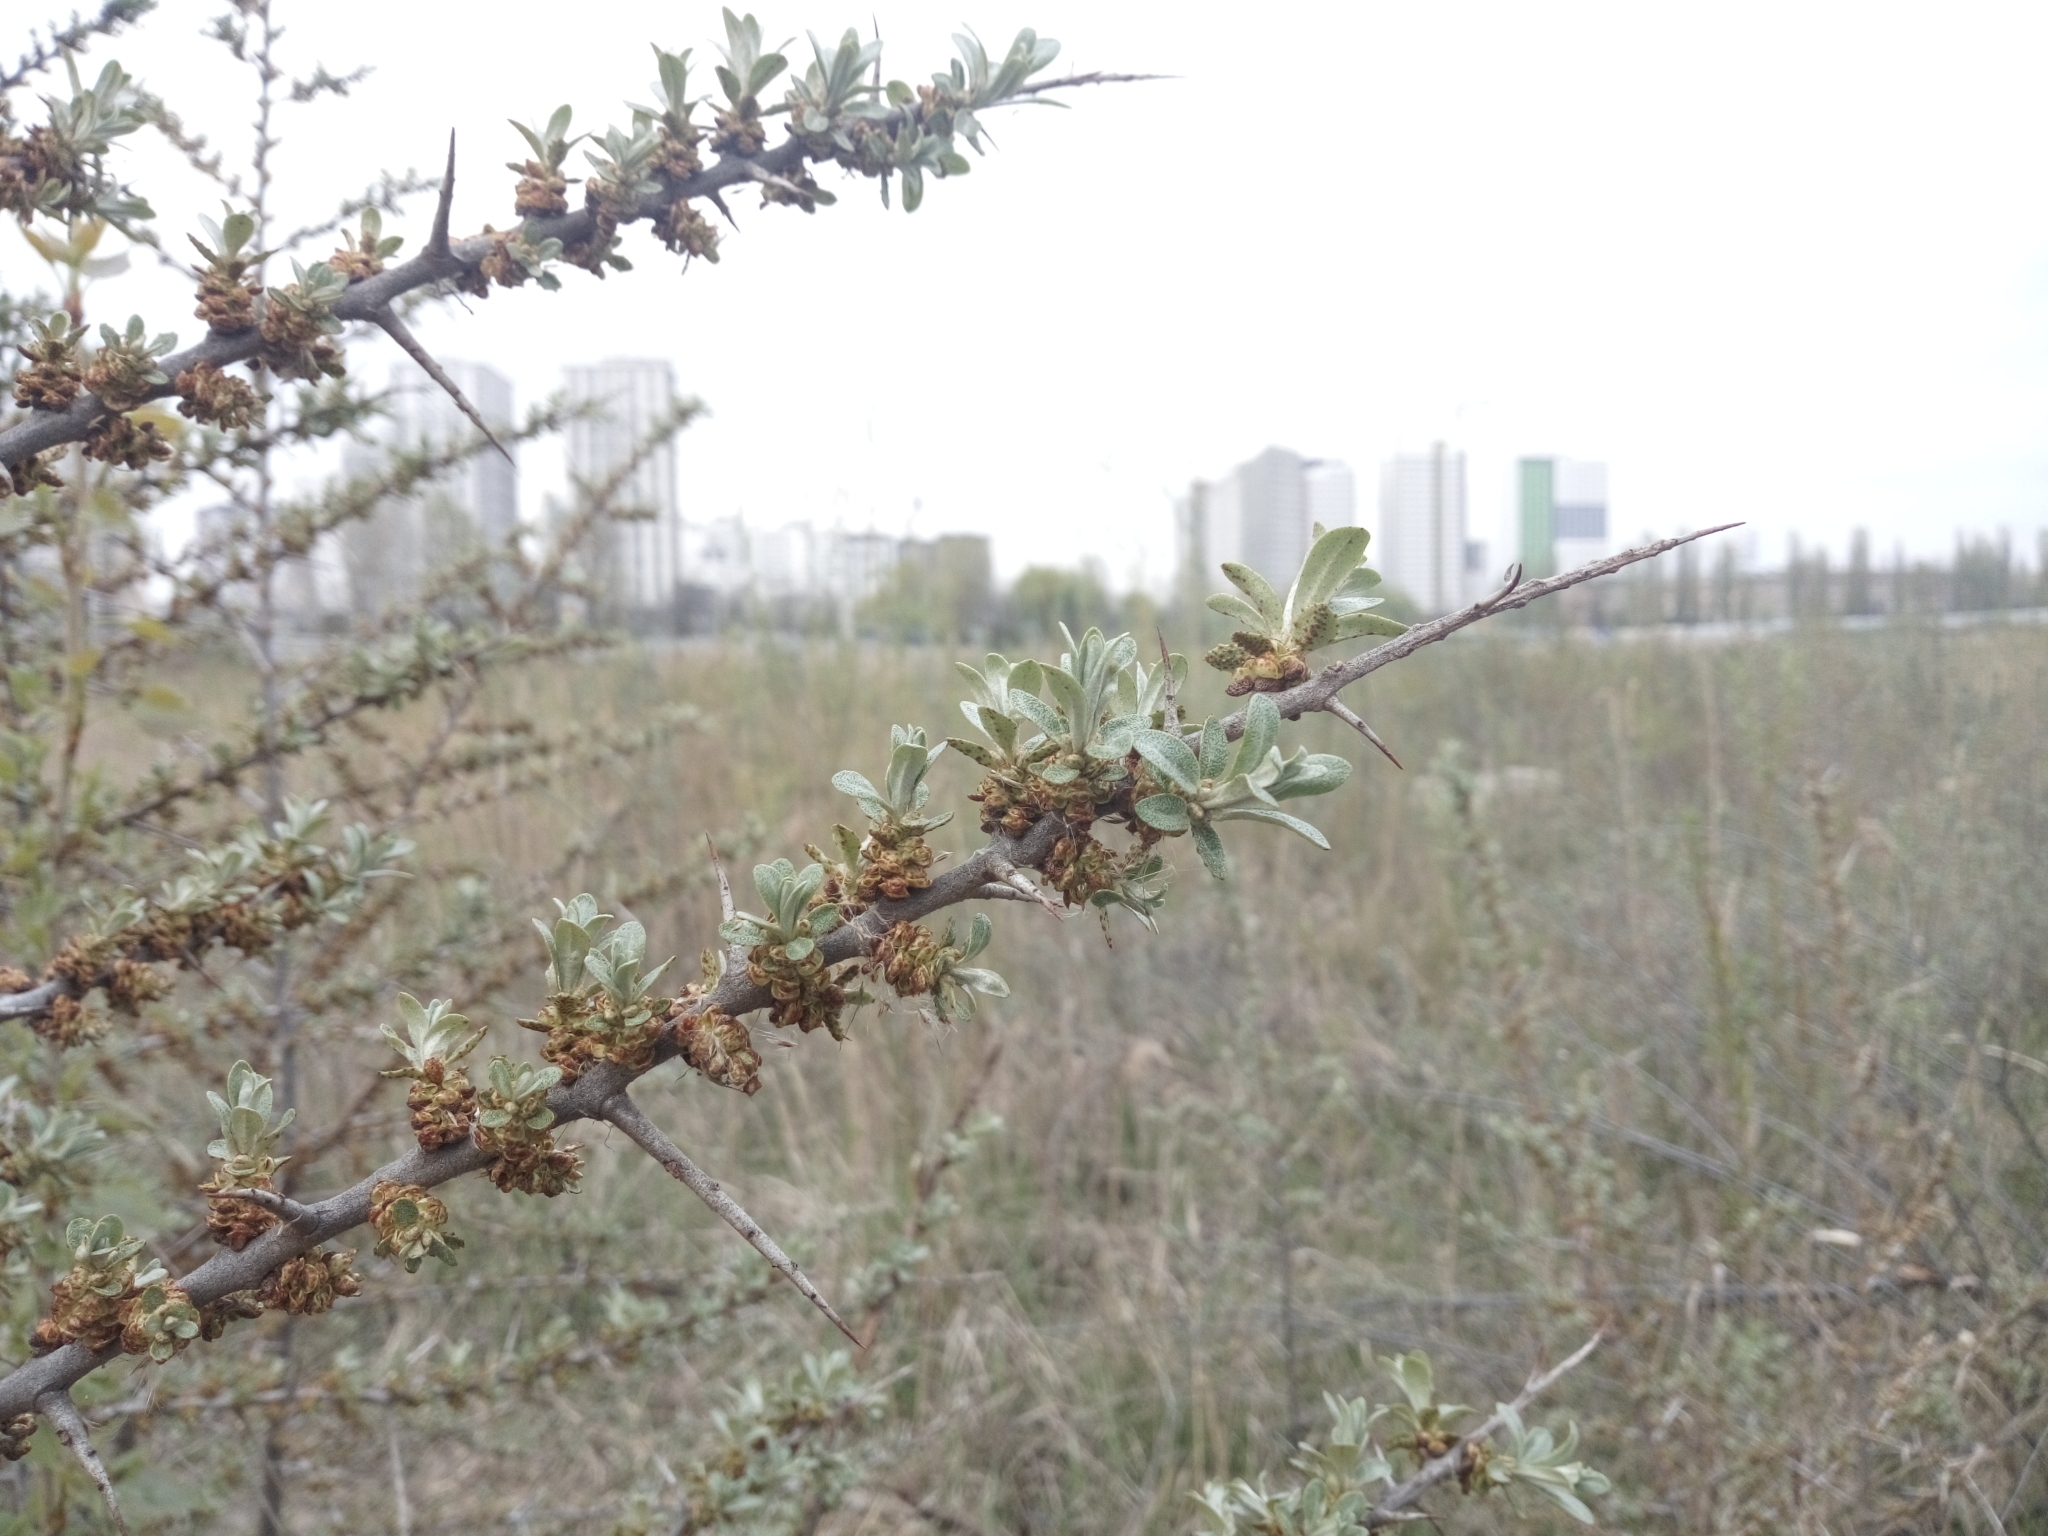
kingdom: Plantae
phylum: Tracheophyta
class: Magnoliopsida
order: Rosales
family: Elaeagnaceae
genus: Hippophae
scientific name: Hippophae rhamnoides
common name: Sea-buckthorn
